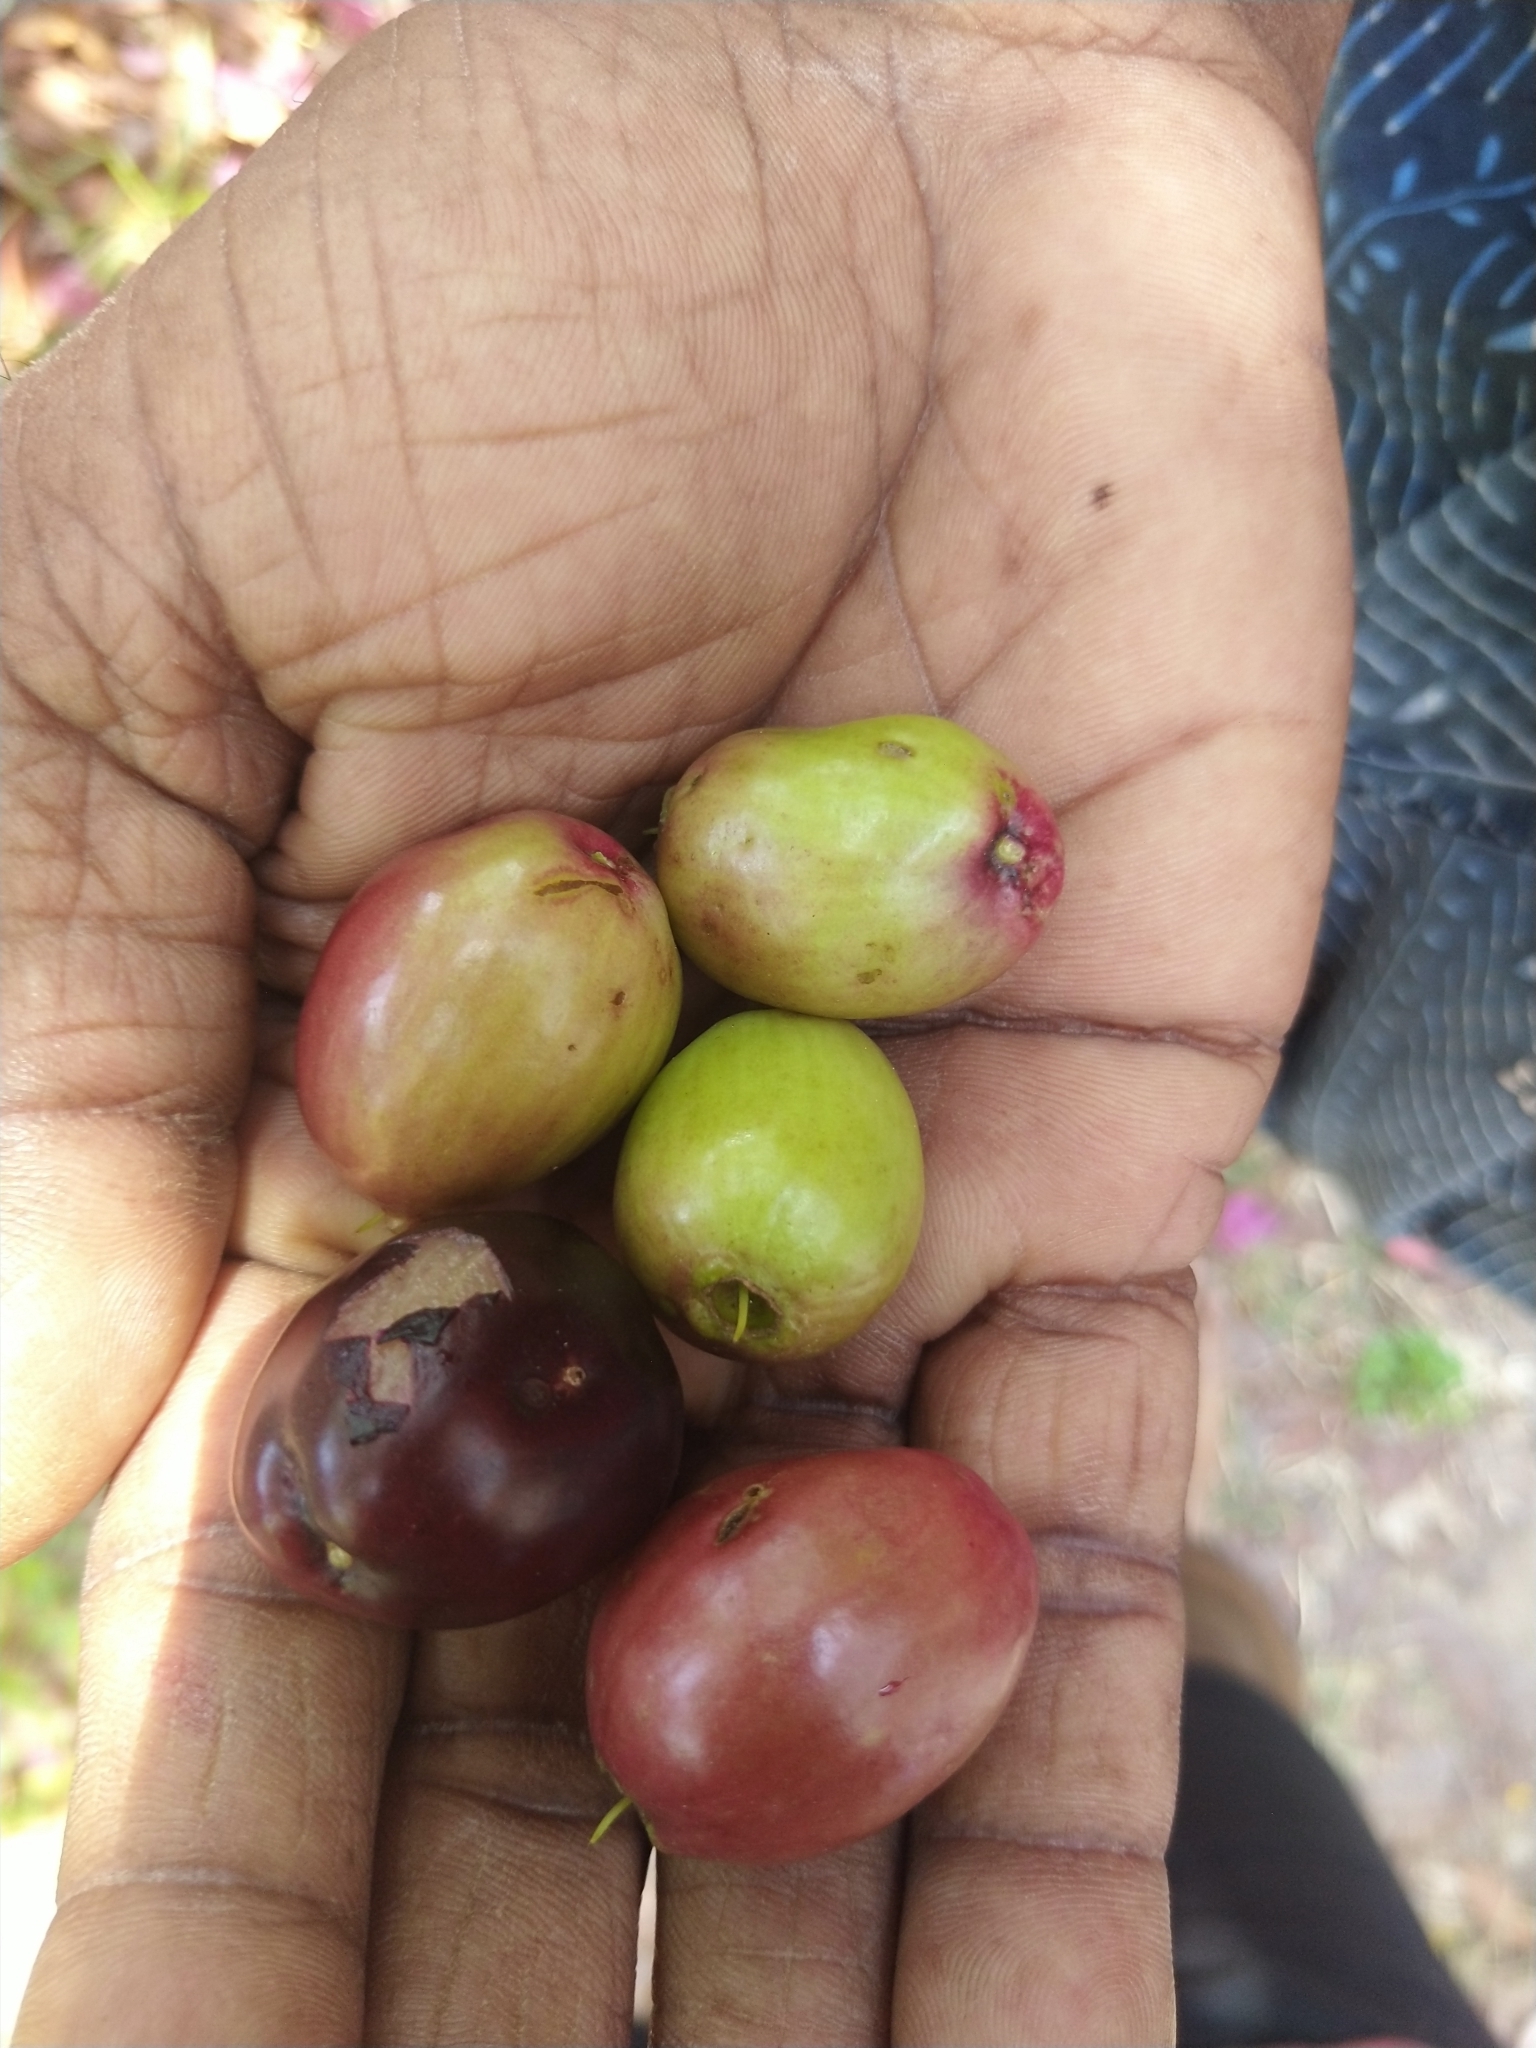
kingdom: Plantae
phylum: Tracheophyta
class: Magnoliopsida
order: Myrtales
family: Myrtaceae
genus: Syzygium
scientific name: Syzygium cumini
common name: Java plum
